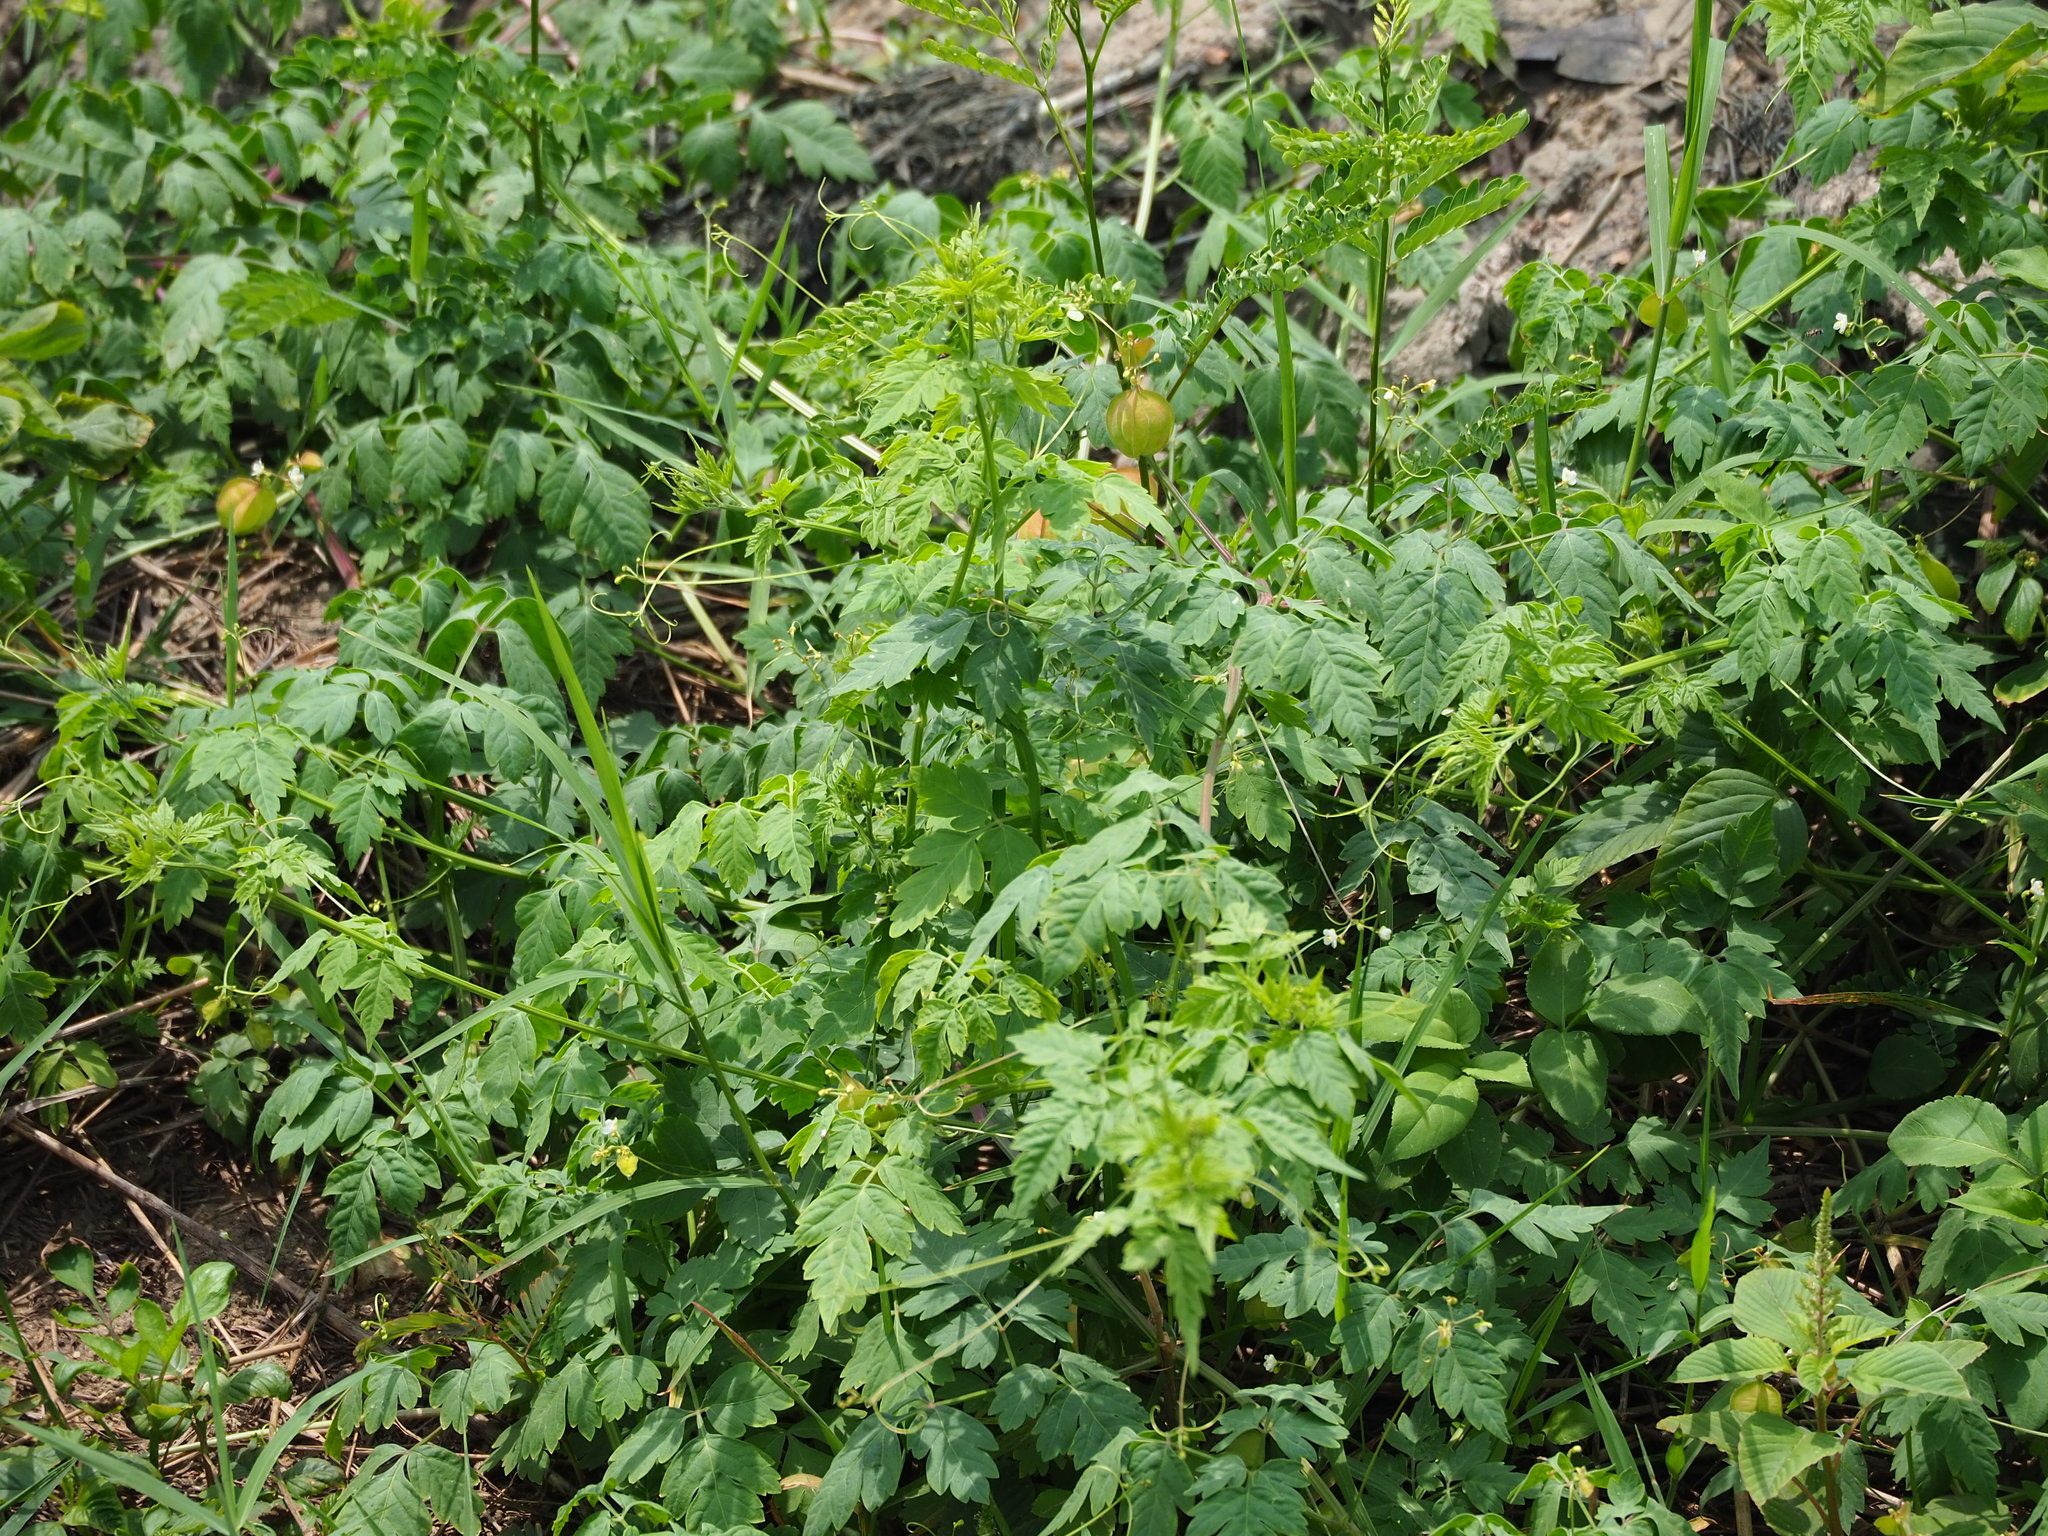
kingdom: Plantae
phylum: Tracheophyta
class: Magnoliopsida
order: Sapindales
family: Sapindaceae
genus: Cardiospermum
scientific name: Cardiospermum halicacabum
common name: Balloon vine
